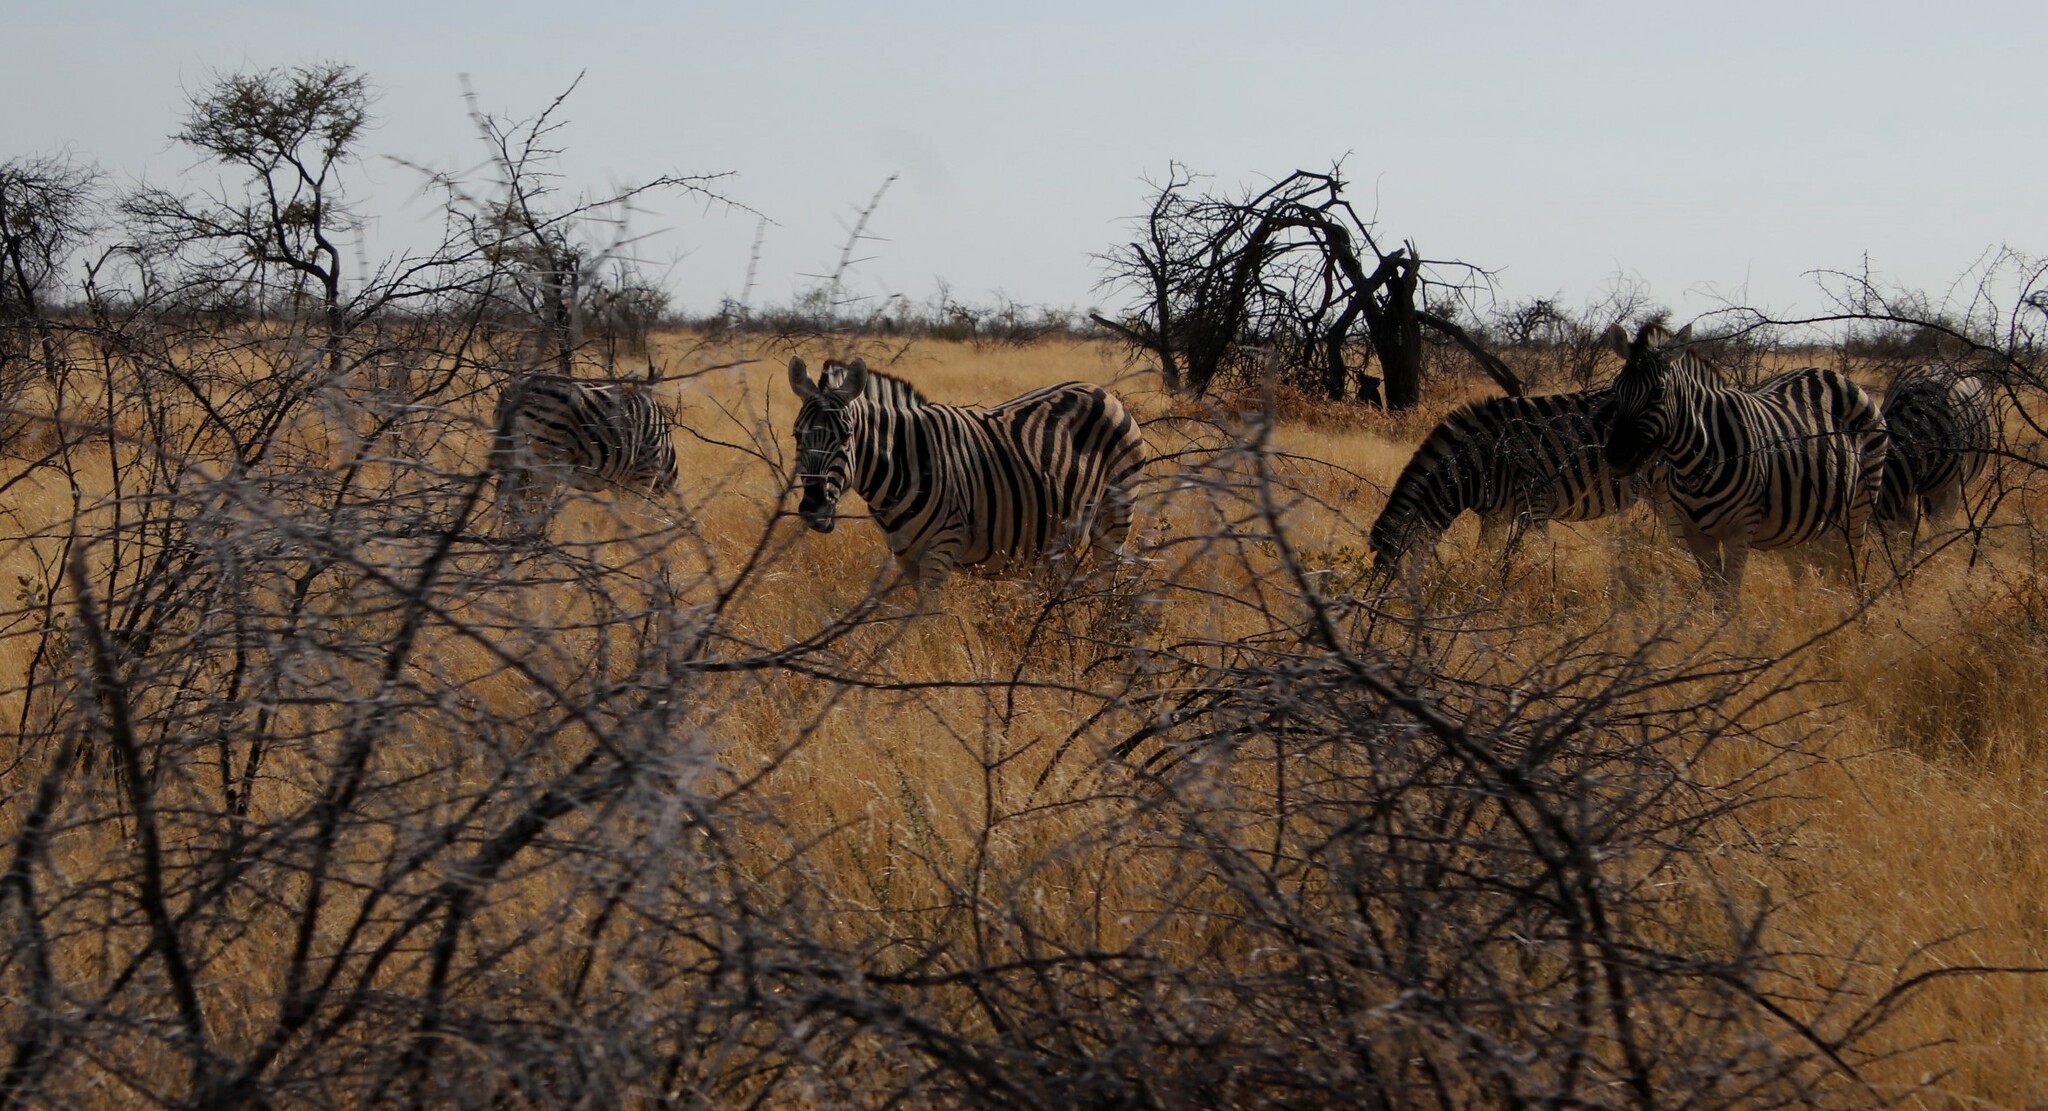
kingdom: Animalia
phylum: Chordata
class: Mammalia
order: Perissodactyla
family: Equidae
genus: Equus
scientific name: Equus quagga
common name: Plains zebra
